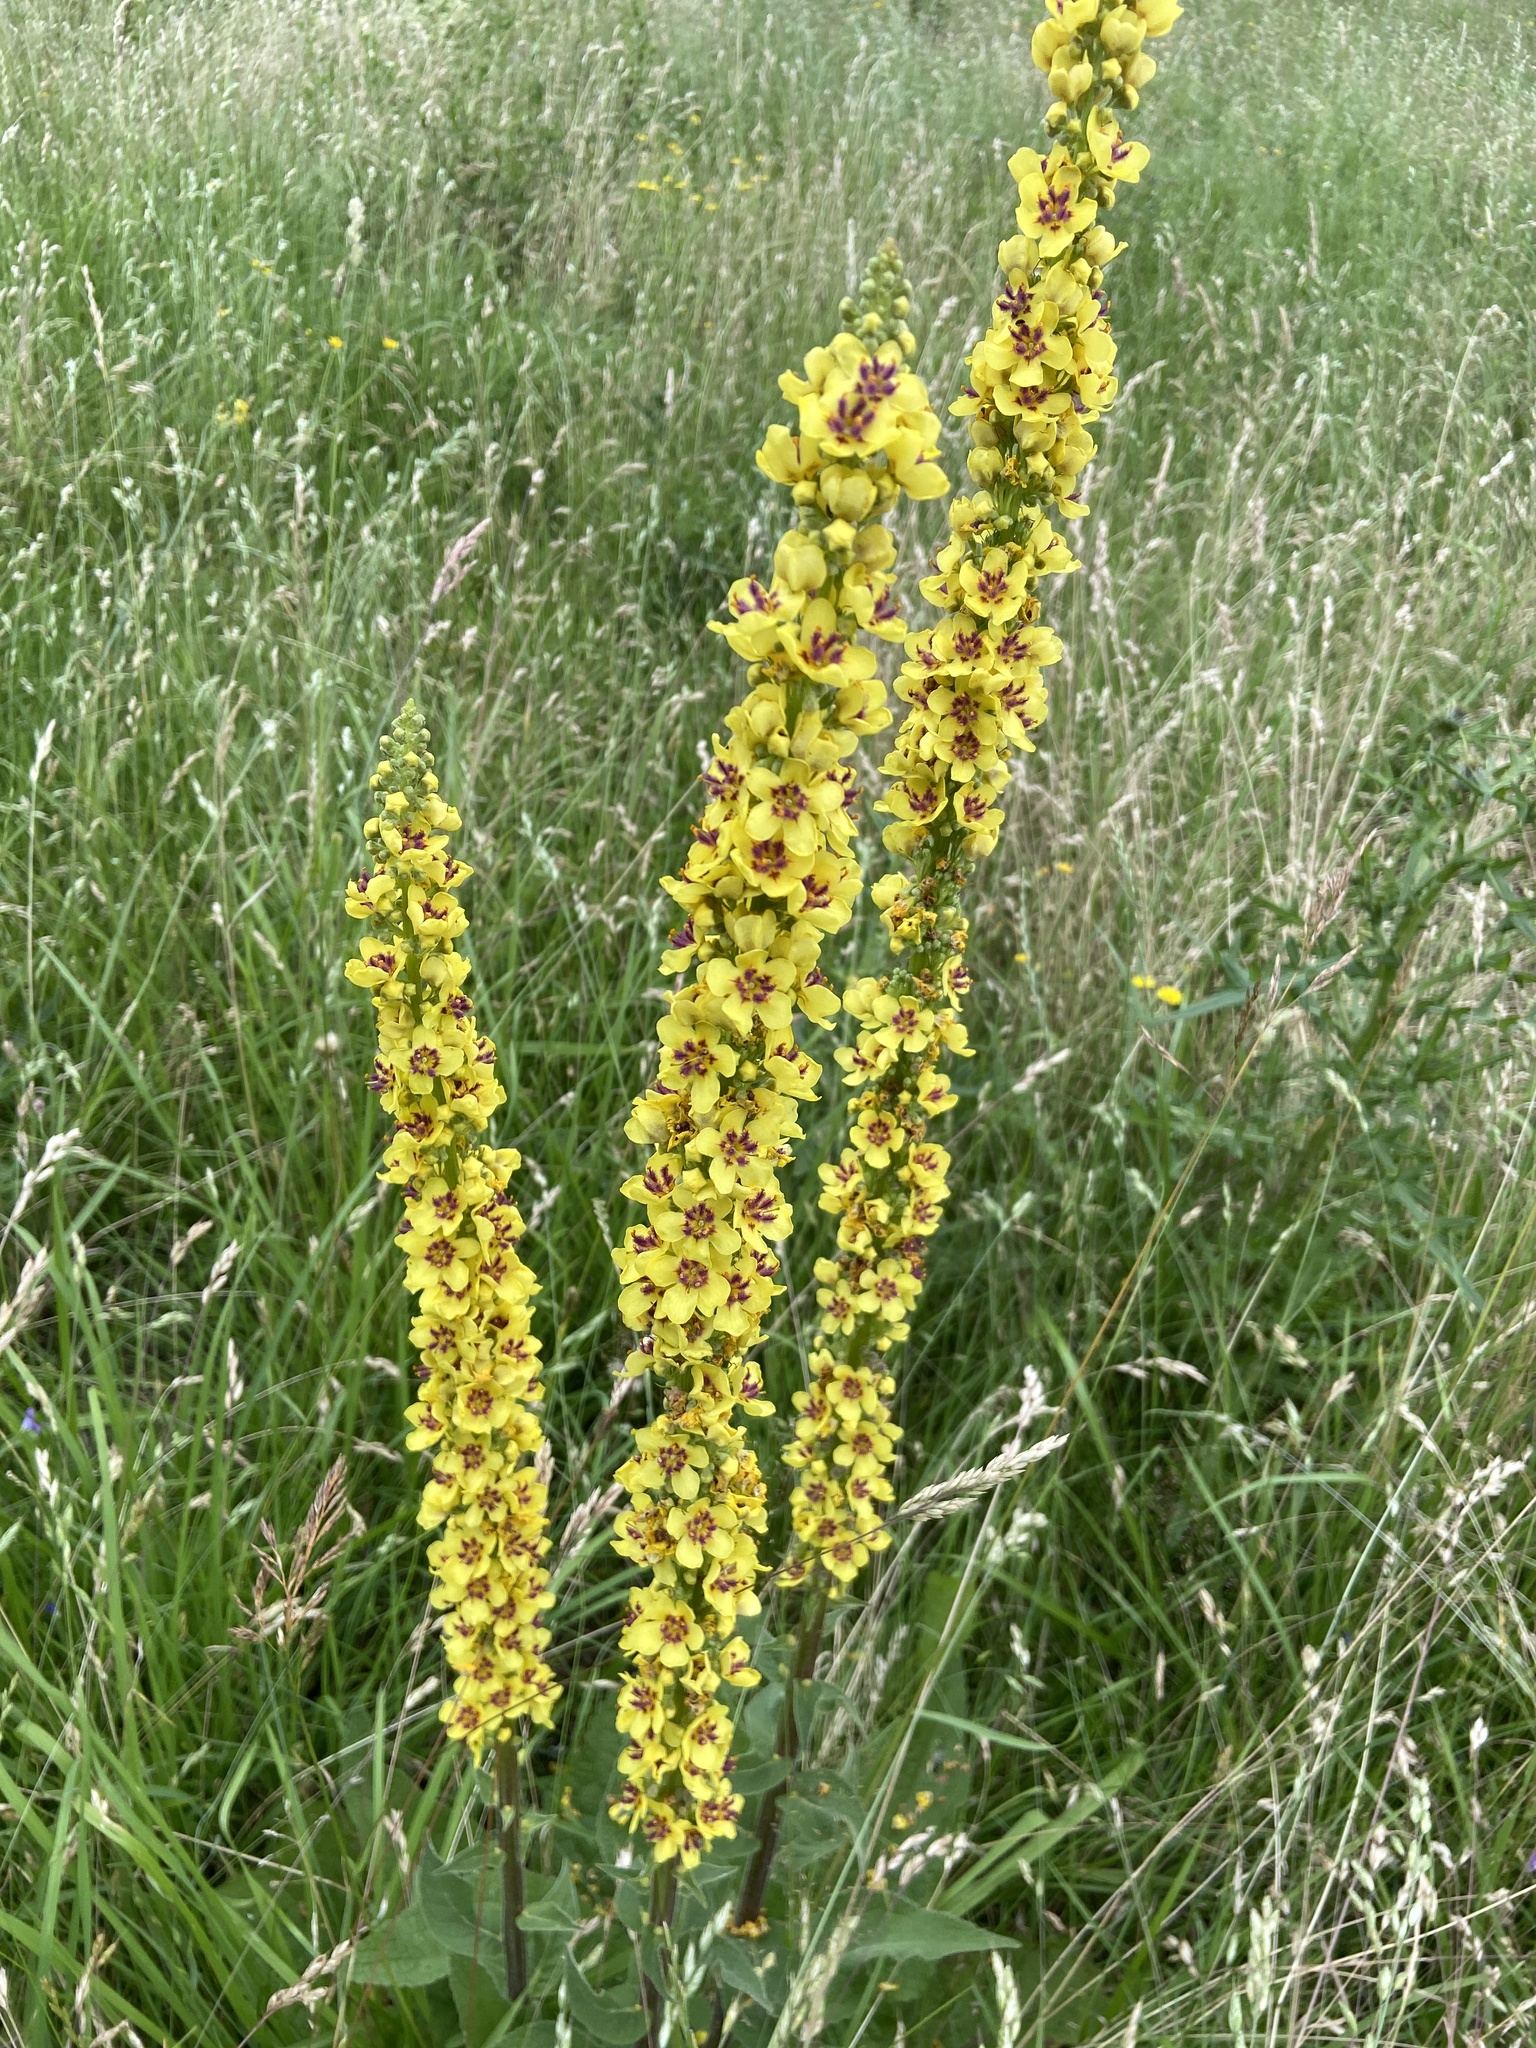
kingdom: Plantae
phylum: Tracheophyta
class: Magnoliopsida
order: Lamiales
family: Scrophulariaceae
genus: Verbascum
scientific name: Verbascum nigrum
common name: Dark mullein
